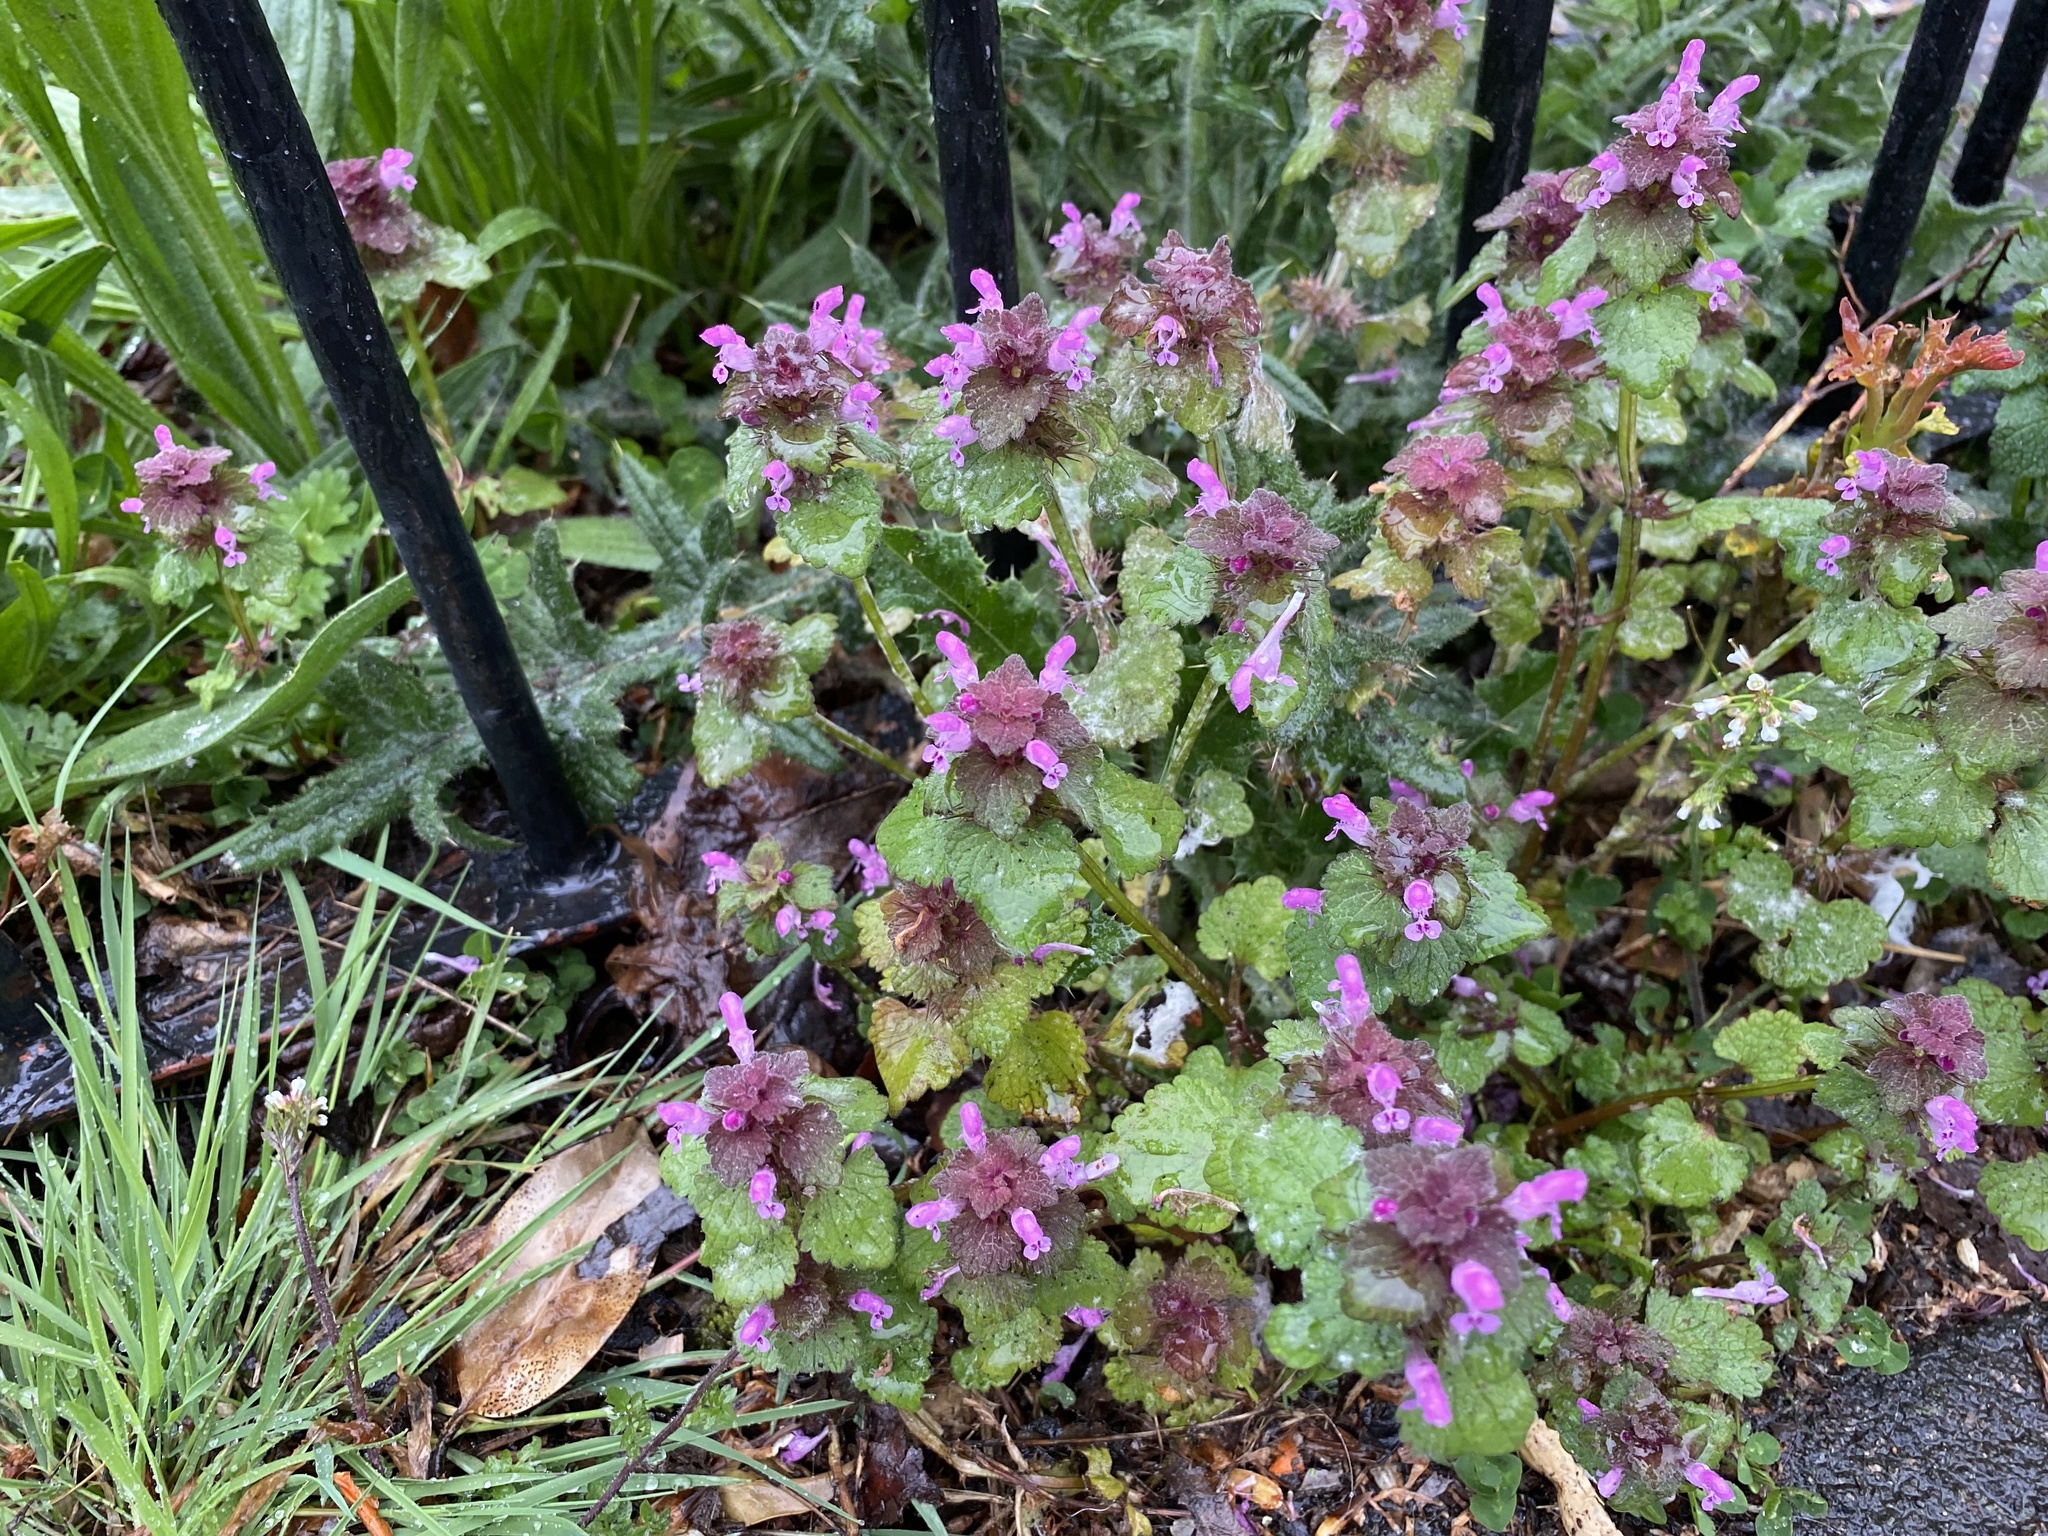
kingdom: Plantae
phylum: Tracheophyta
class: Magnoliopsida
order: Lamiales
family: Lamiaceae
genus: Lamium
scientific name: Lamium purpureum
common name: Red dead-nettle
